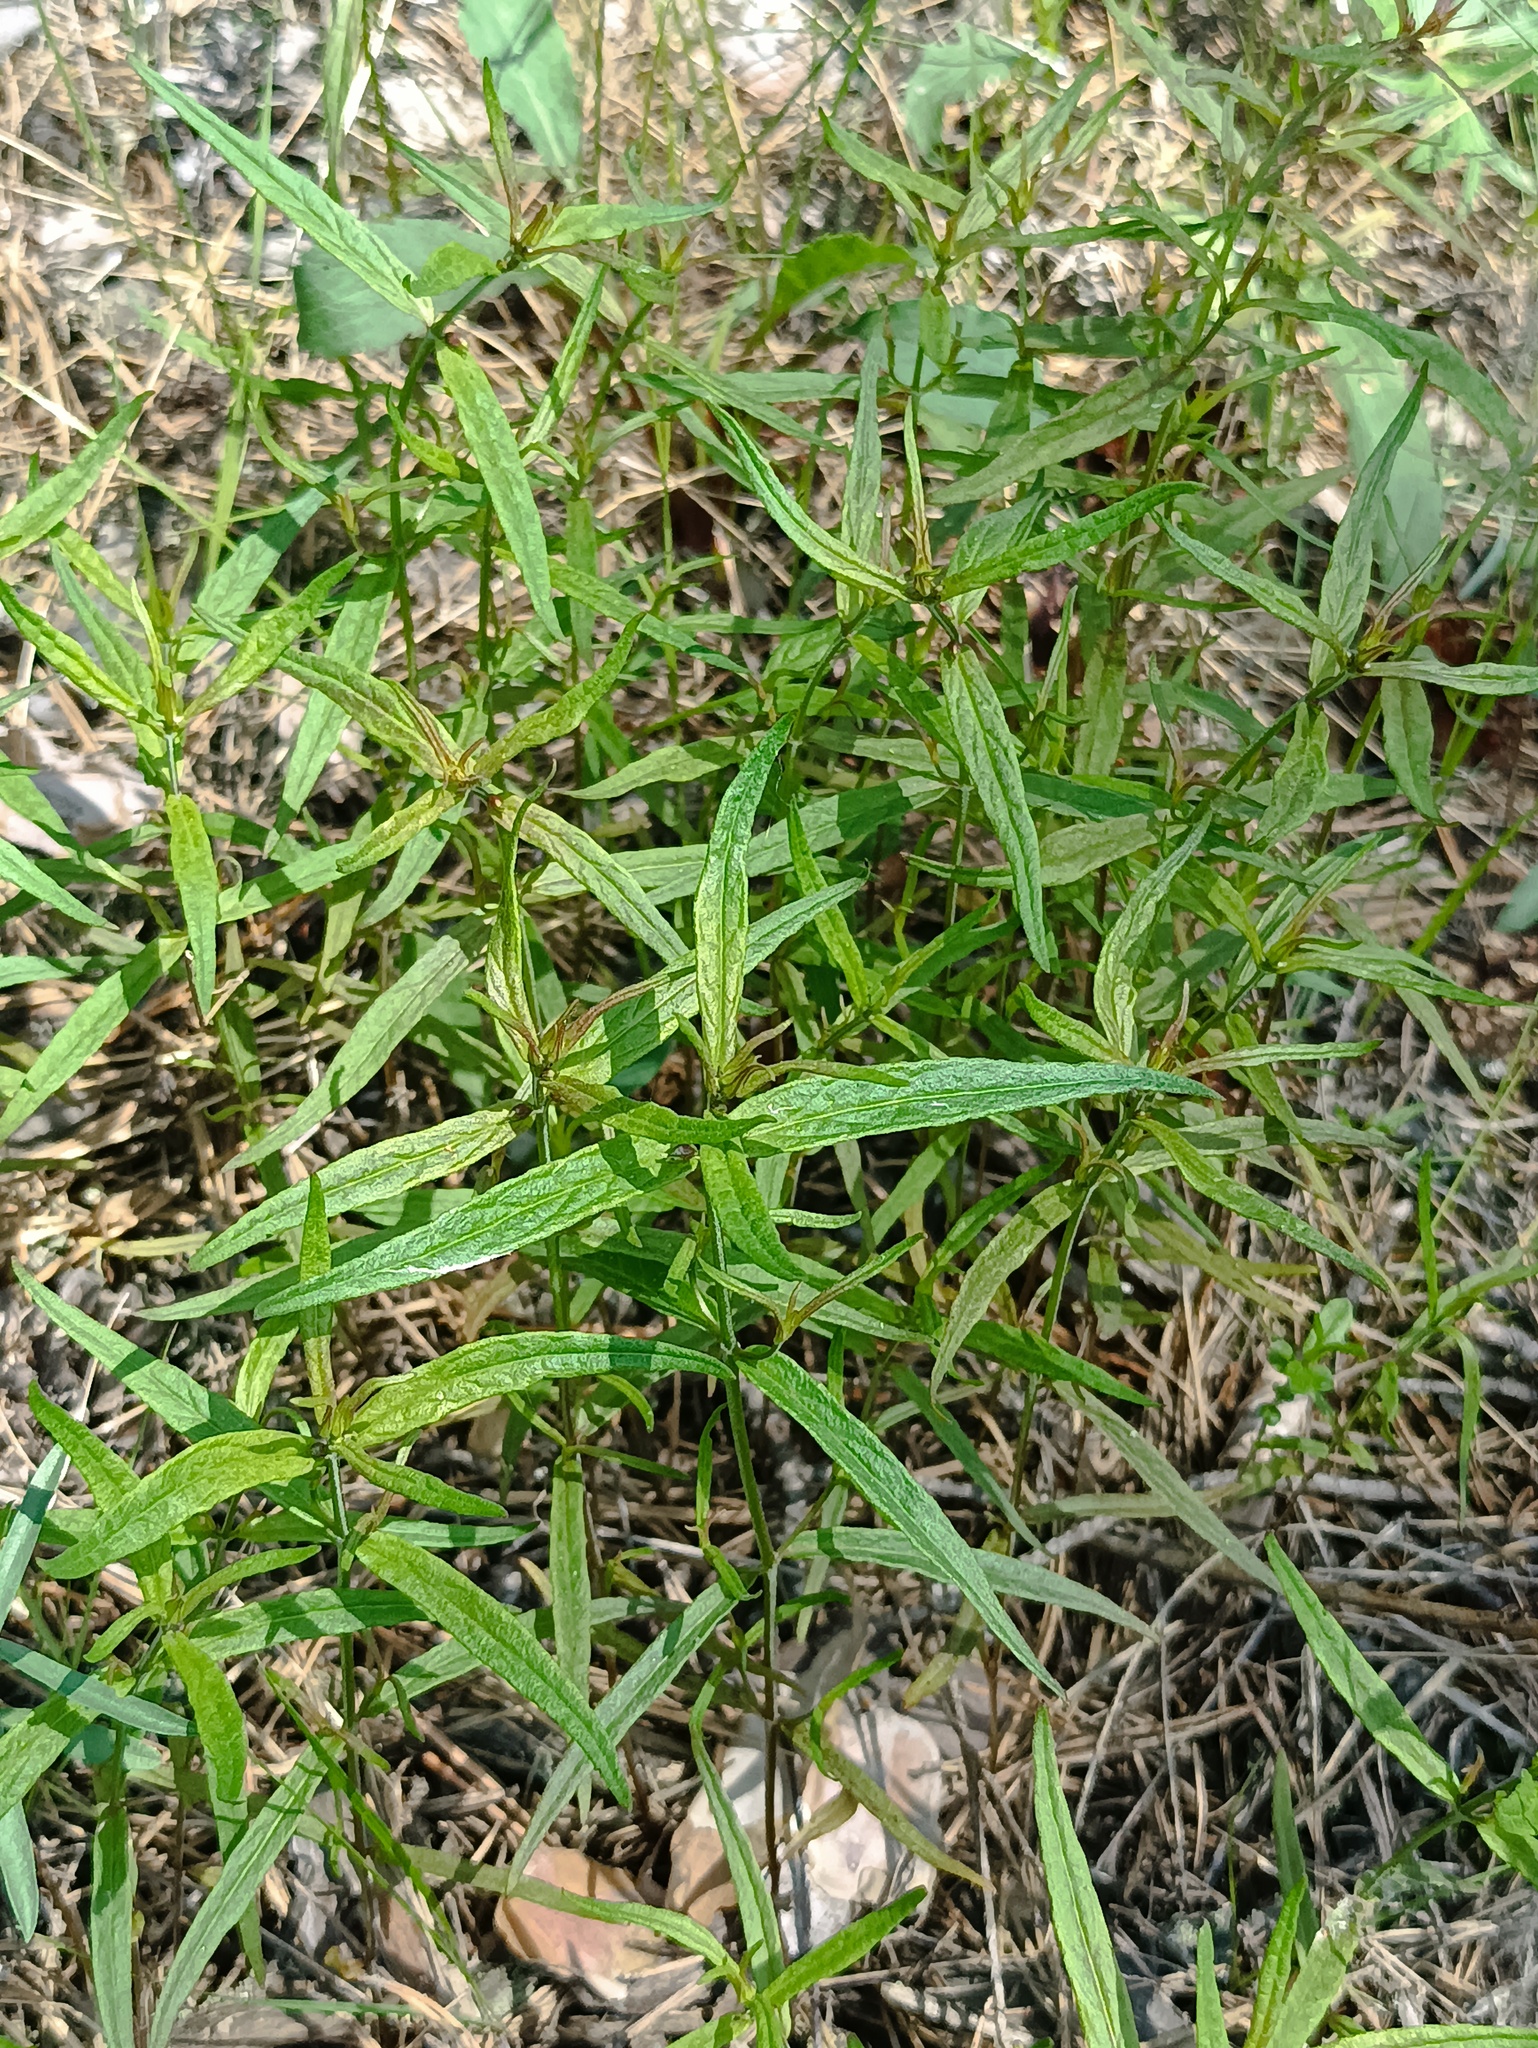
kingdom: Plantae
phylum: Tracheophyta
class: Magnoliopsida
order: Lamiales
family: Orobanchaceae
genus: Melampyrum
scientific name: Melampyrum pratense
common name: Common cow-wheat
